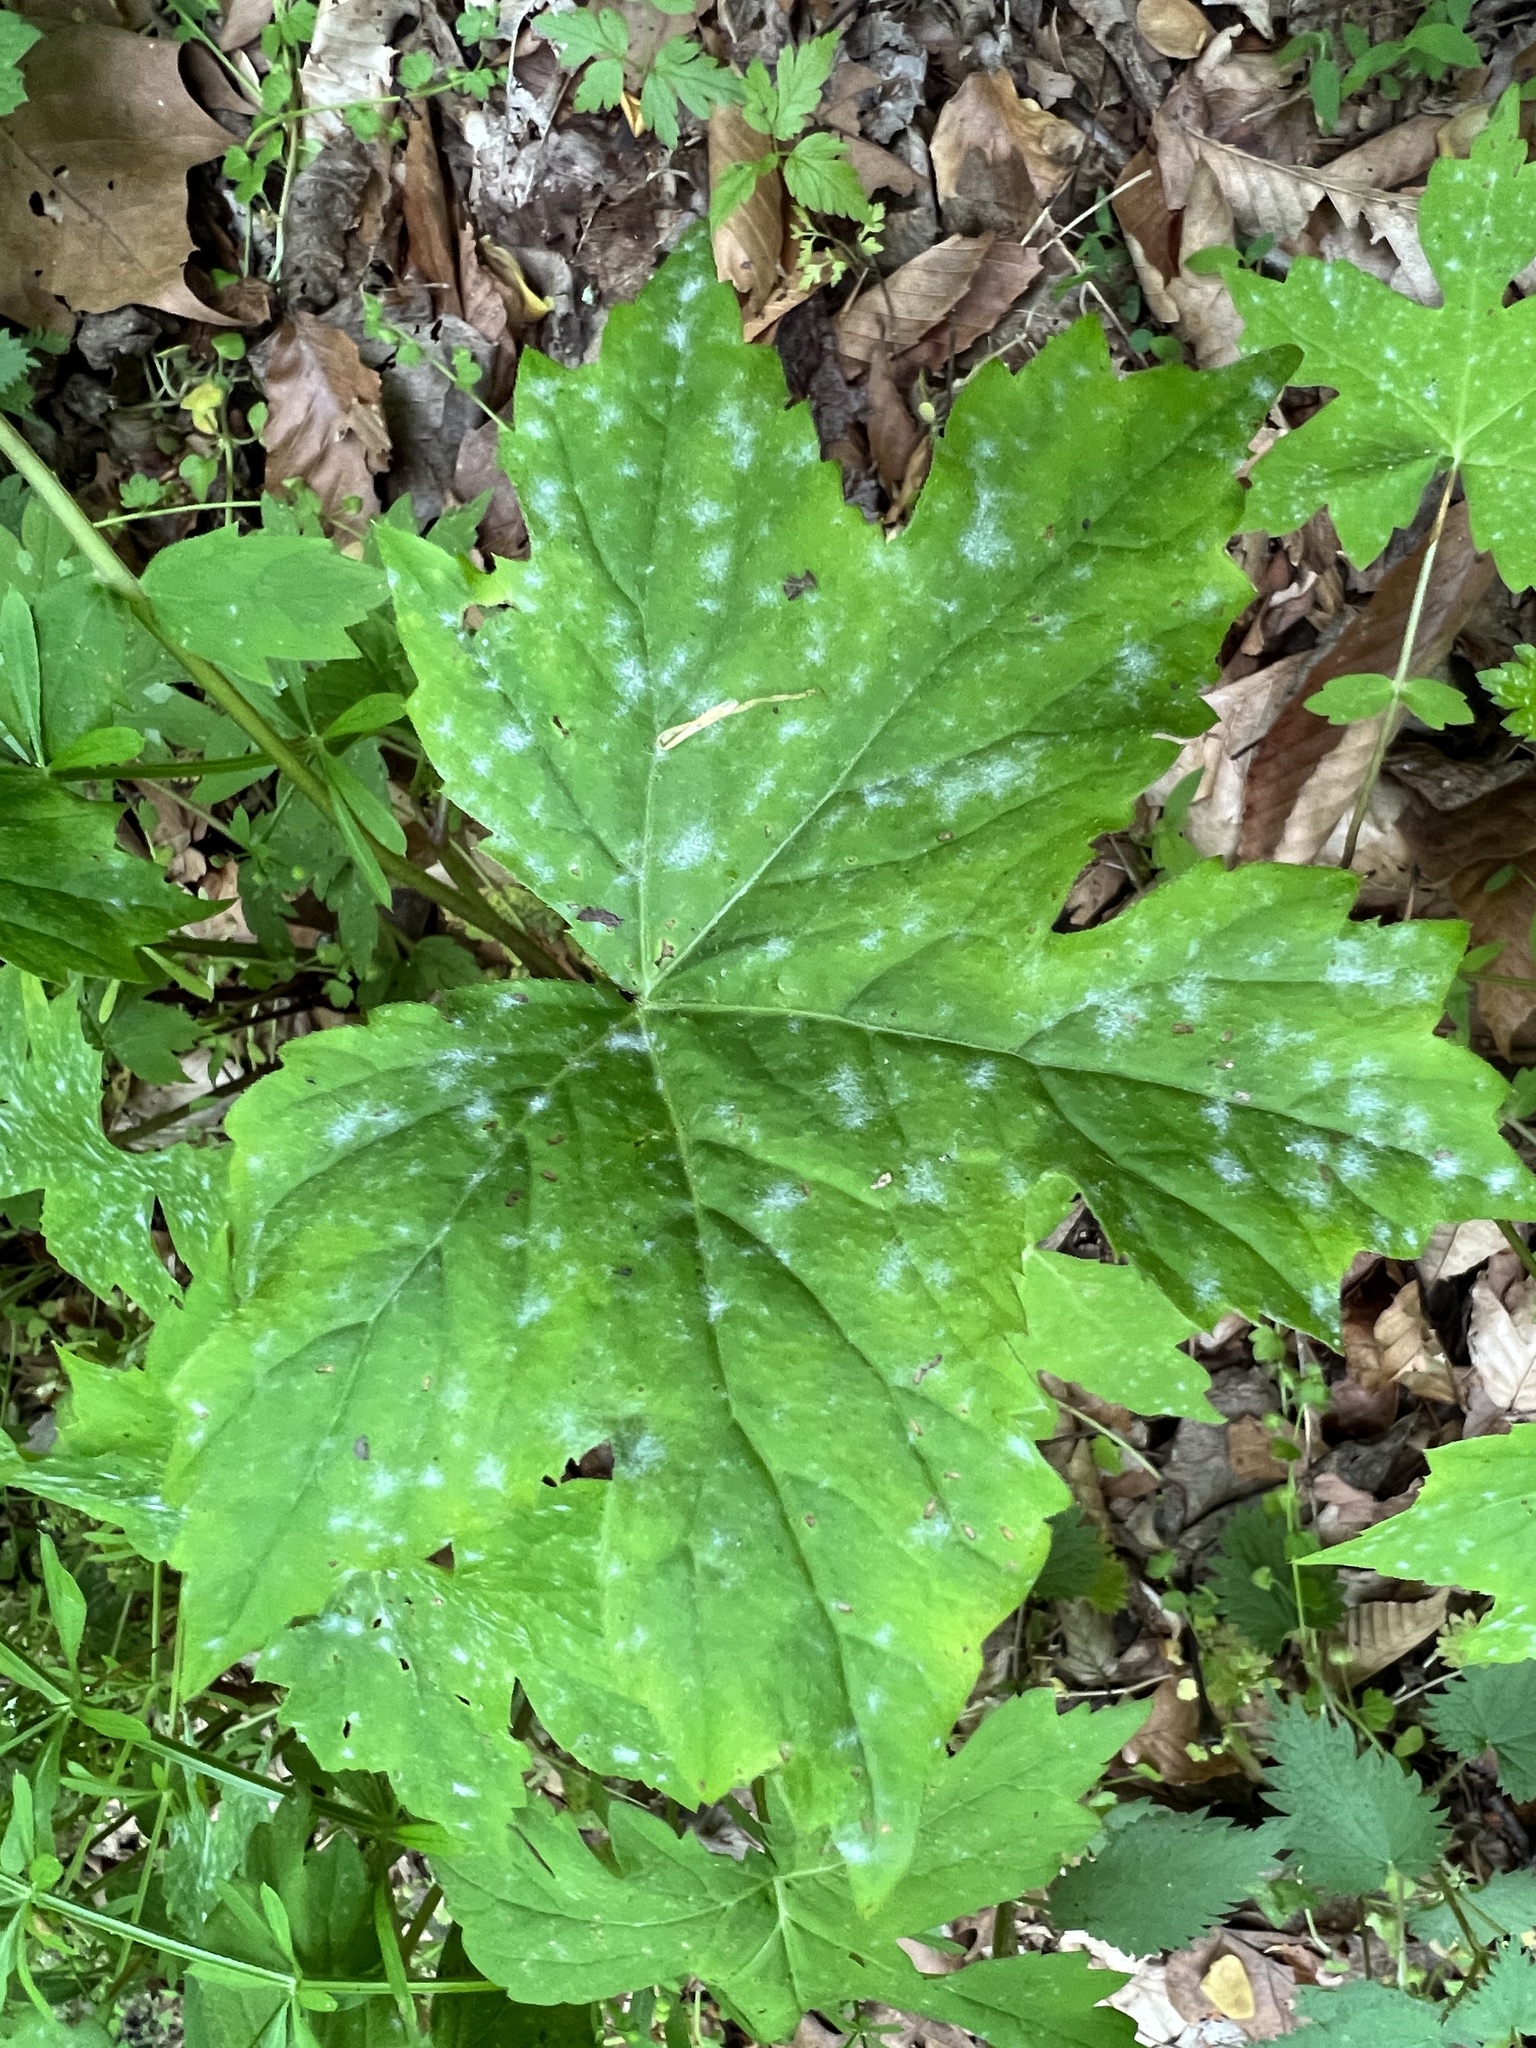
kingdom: Fungi
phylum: Ascomycota
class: Leotiomycetes
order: Helotiales
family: Erysiphaceae
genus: Golovinomyces
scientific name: Golovinomyces hydrophyllacearum
